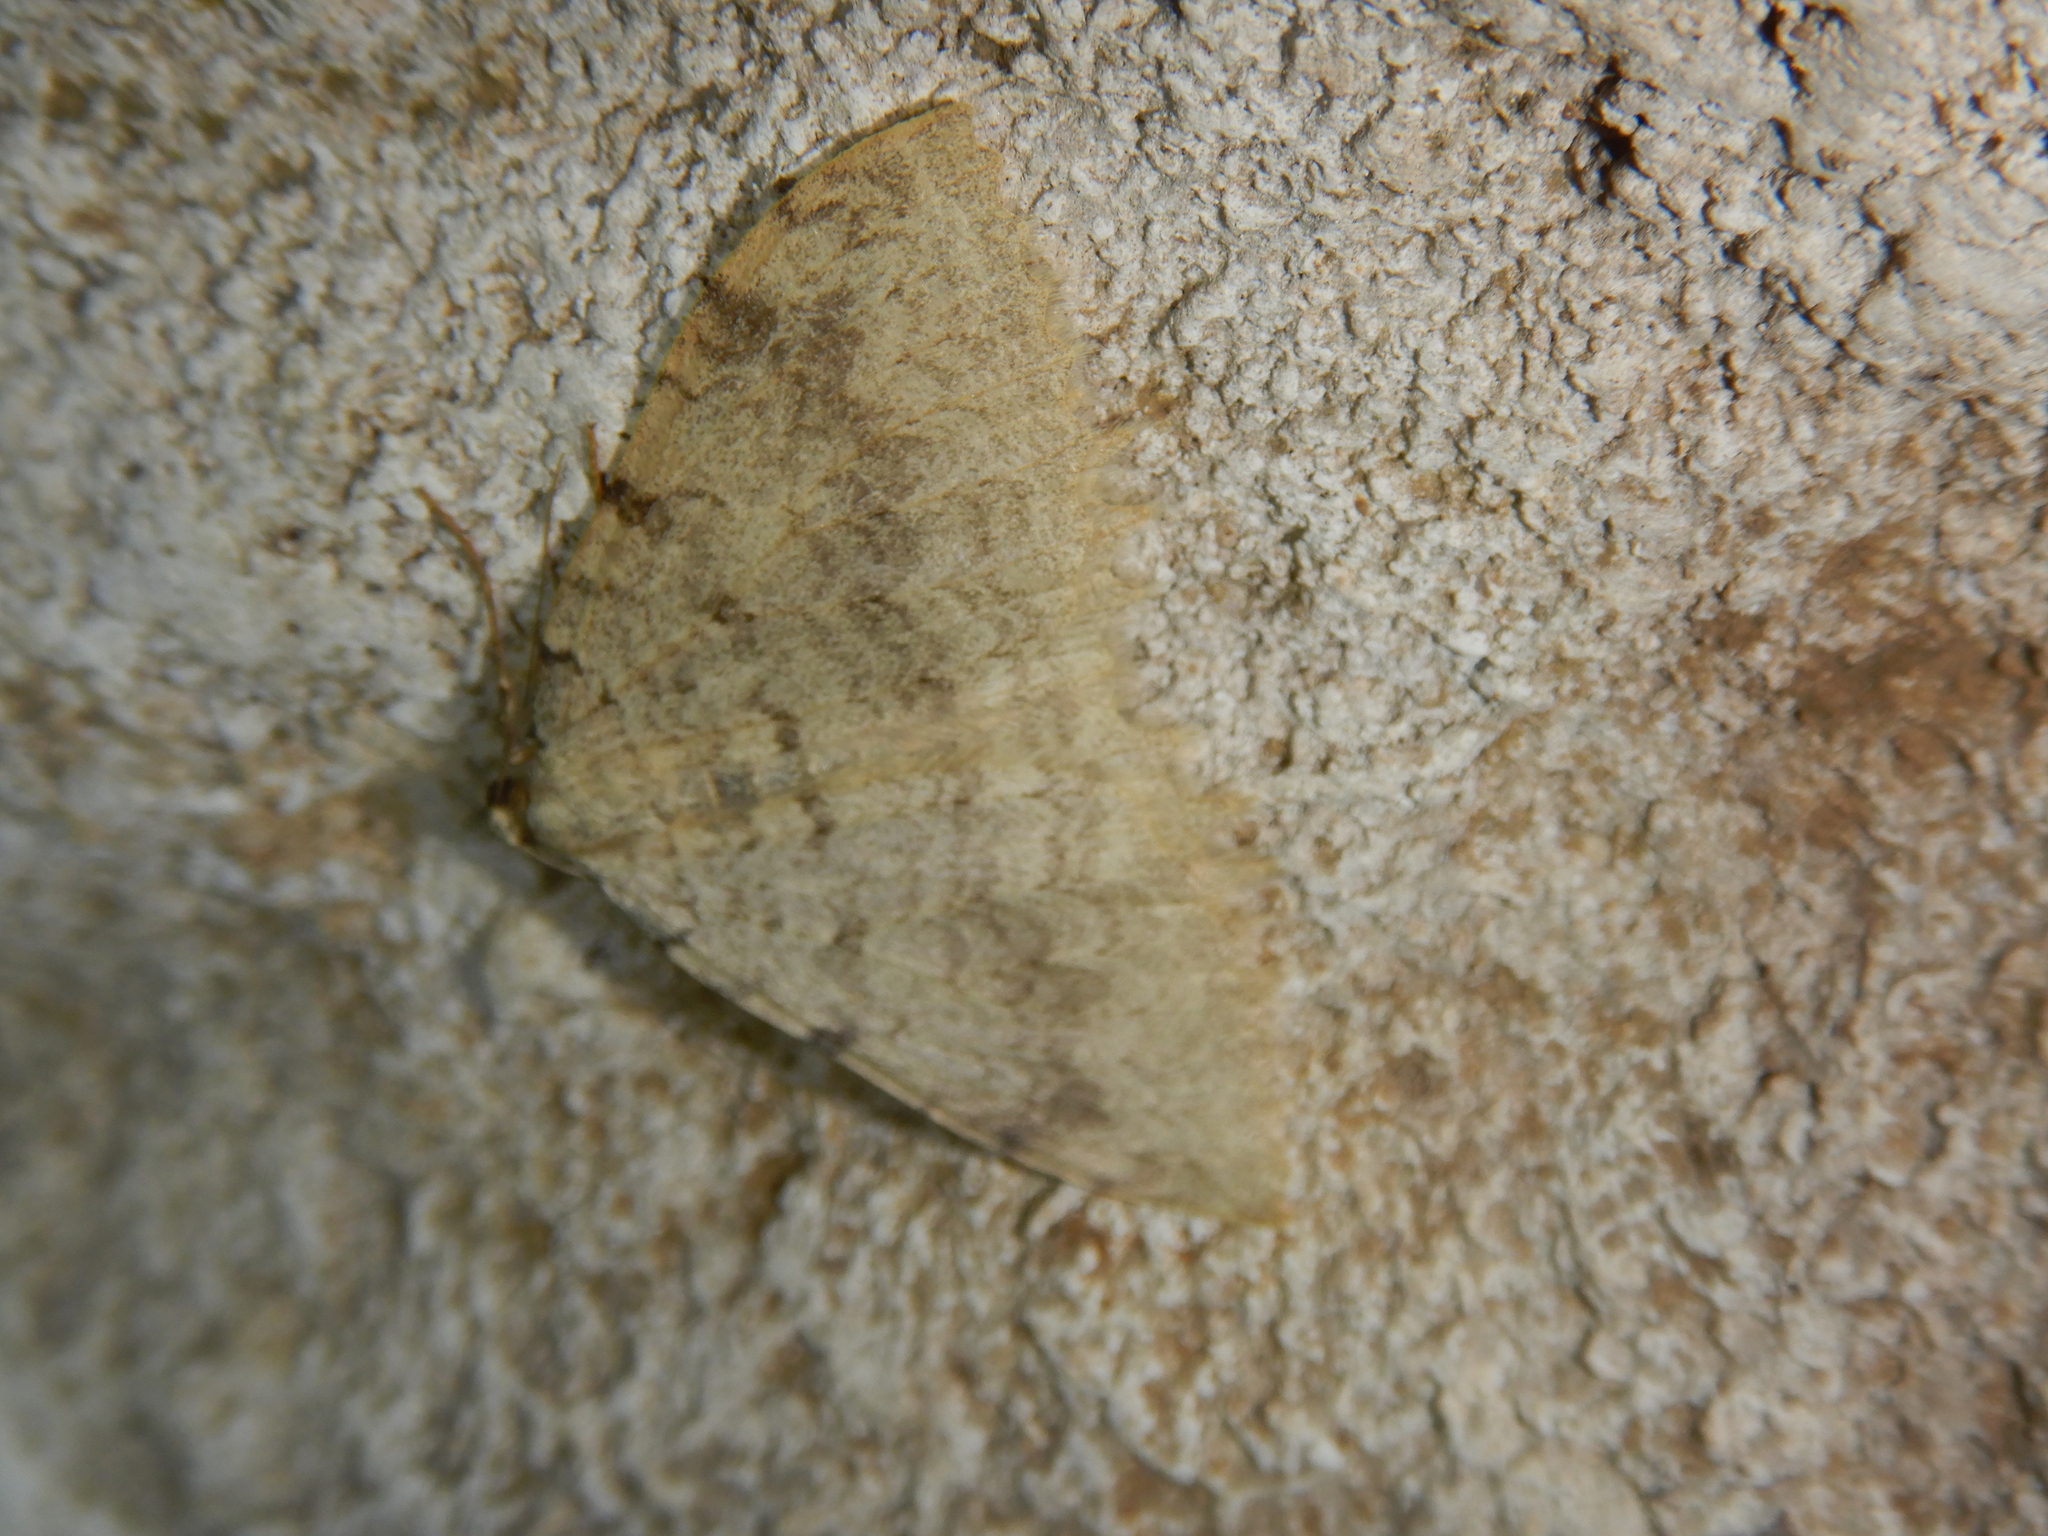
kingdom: Animalia
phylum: Arthropoda
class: Insecta
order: Lepidoptera
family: Geometridae
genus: Triphosa
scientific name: Triphosa sabaudiata
